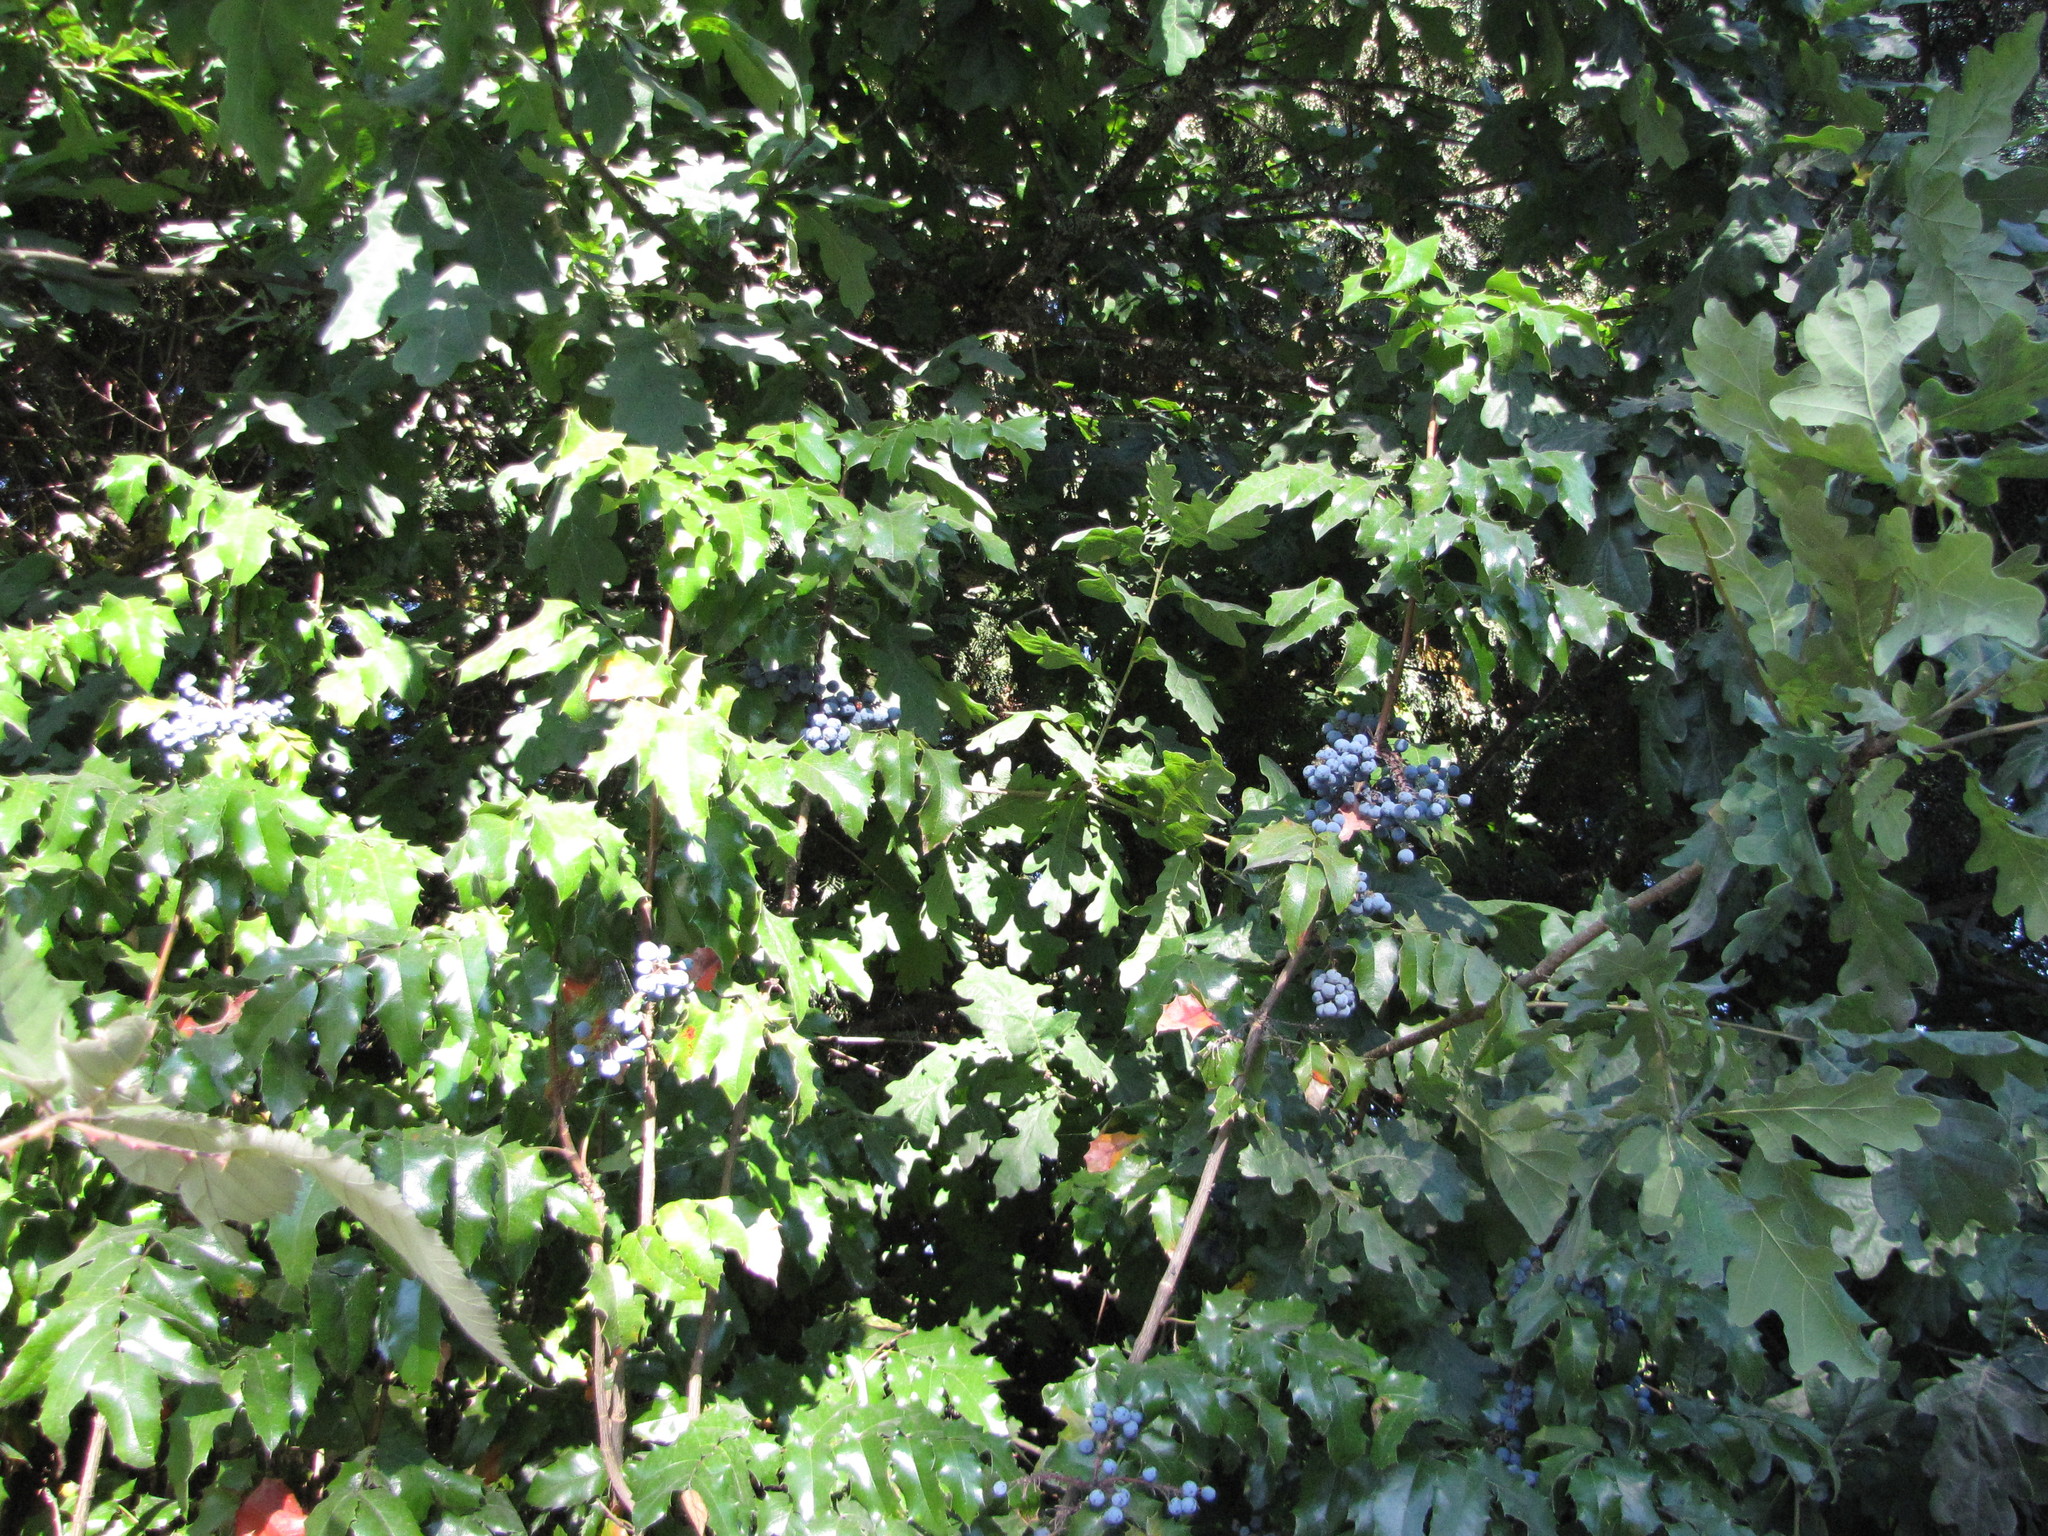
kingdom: Plantae
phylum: Tracheophyta
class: Magnoliopsida
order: Ranunculales
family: Berberidaceae
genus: Mahonia
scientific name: Mahonia aquifolium
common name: Oregon-grape
